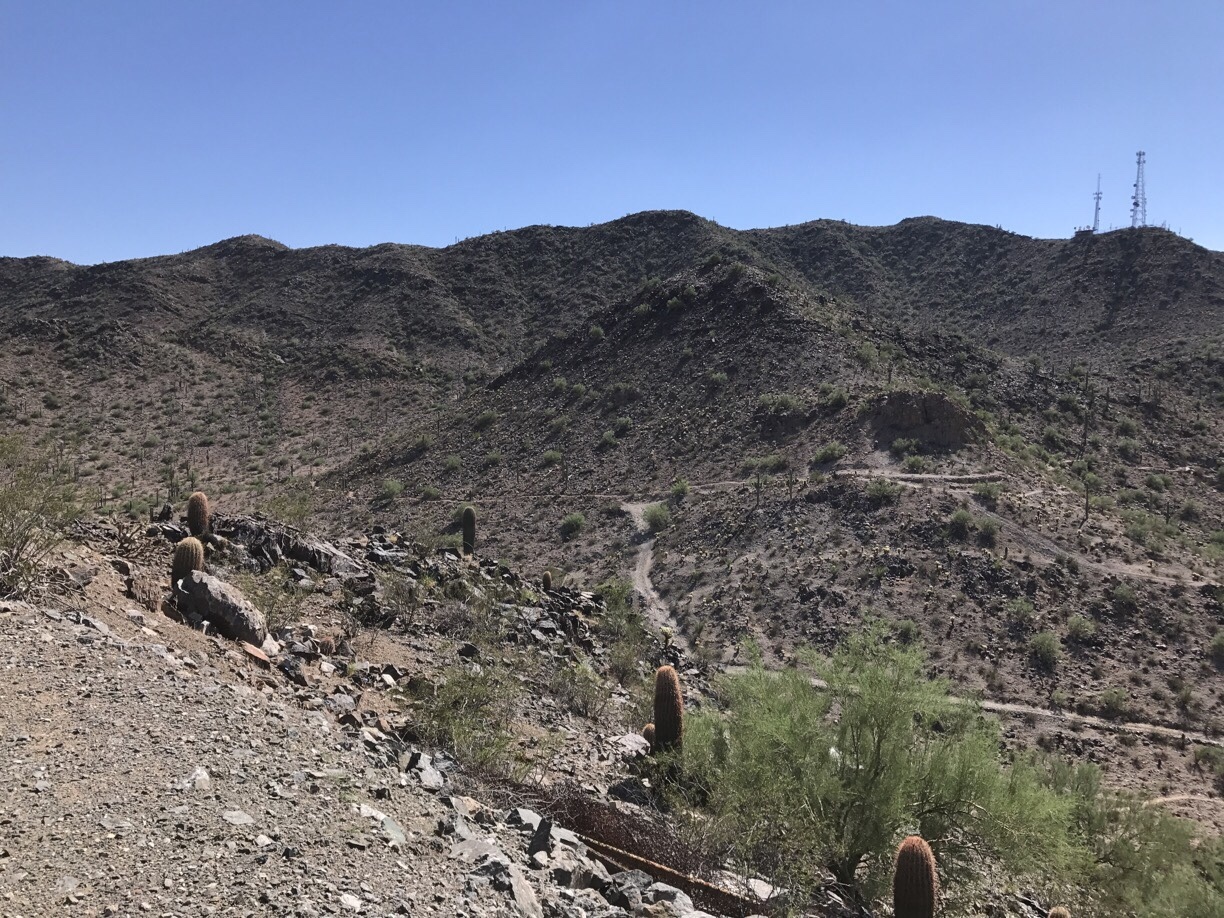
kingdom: Plantae
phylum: Tracheophyta
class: Magnoliopsida
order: Caryophyllales
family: Cactaceae
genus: Ferocactus
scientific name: Ferocactus cylindraceus
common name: California barrel cactus
